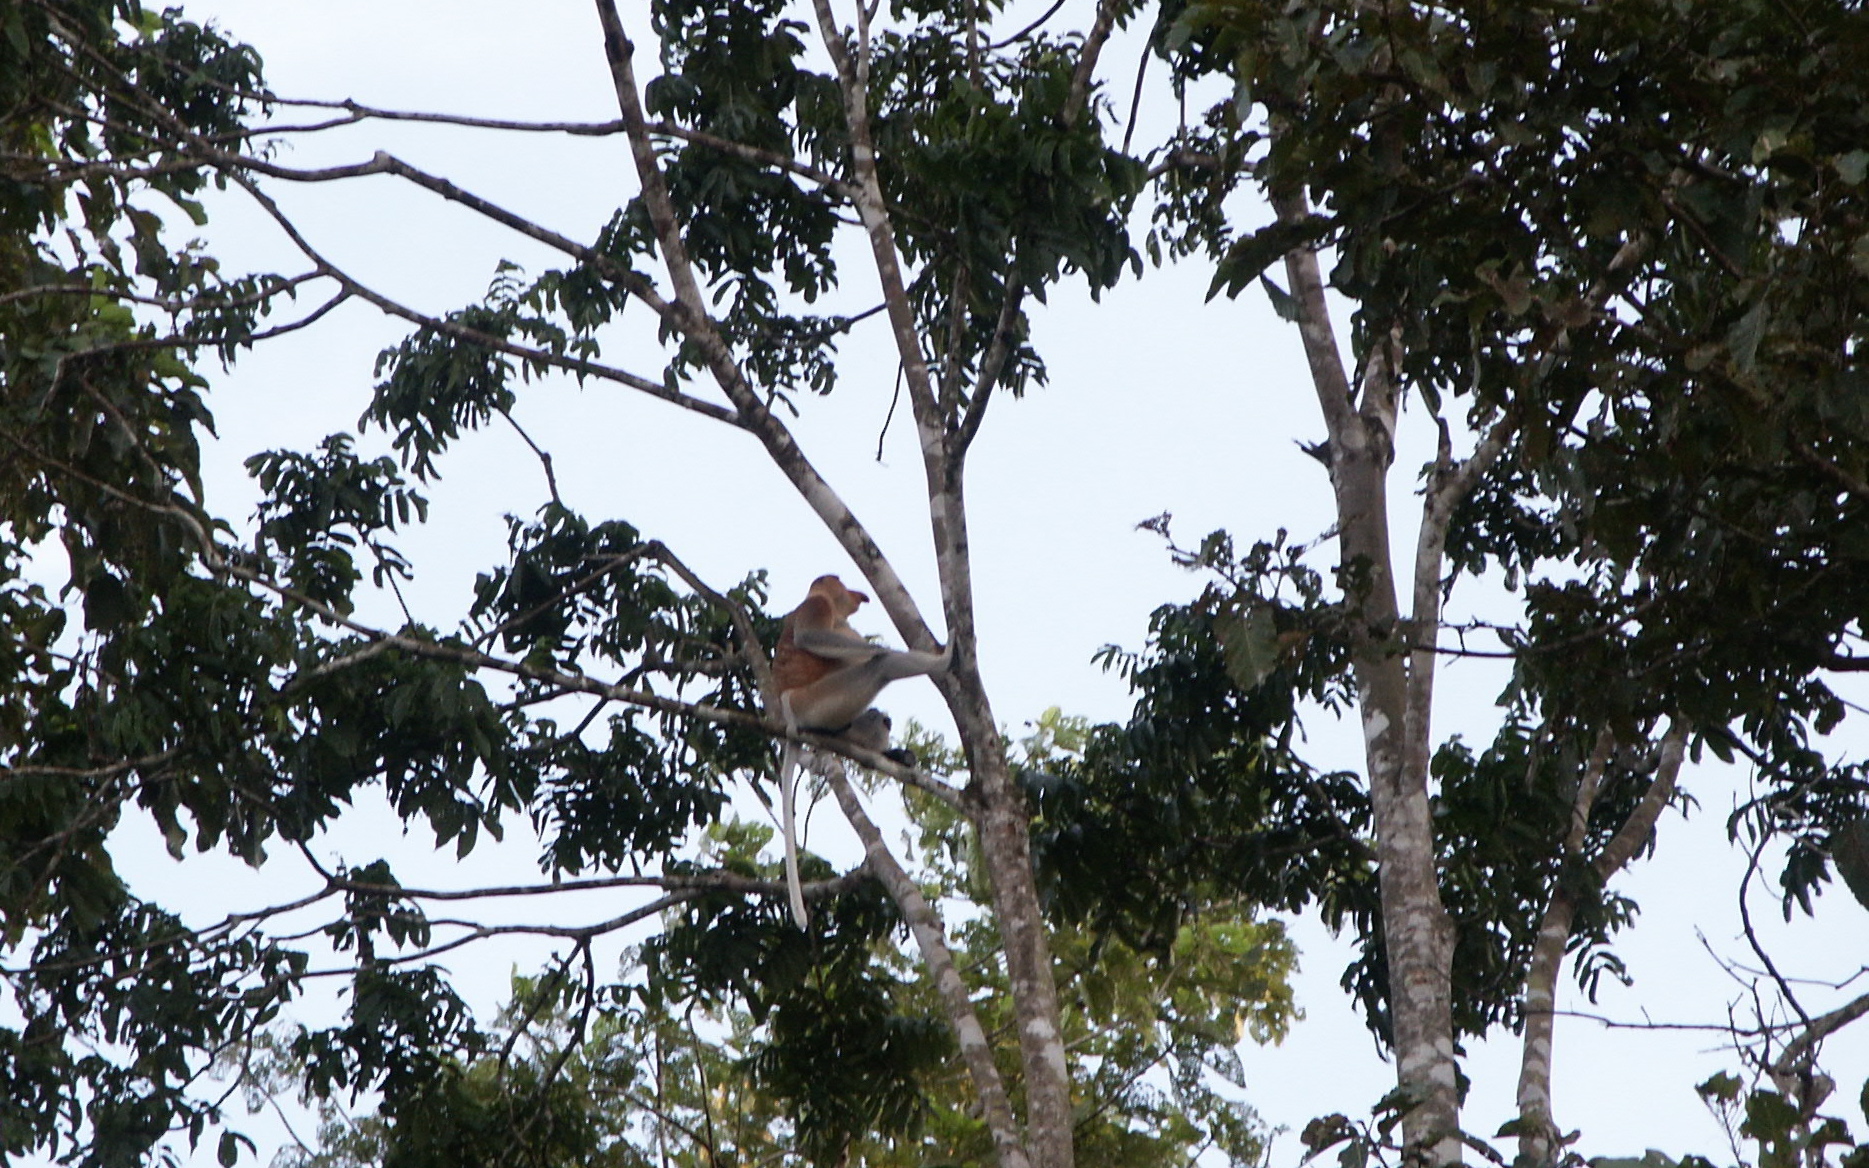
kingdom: Animalia
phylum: Chordata
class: Mammalia
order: Primates
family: Cercopithecidae
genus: Nasalis
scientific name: Nasalis larvatus
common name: Proboscis monkey
